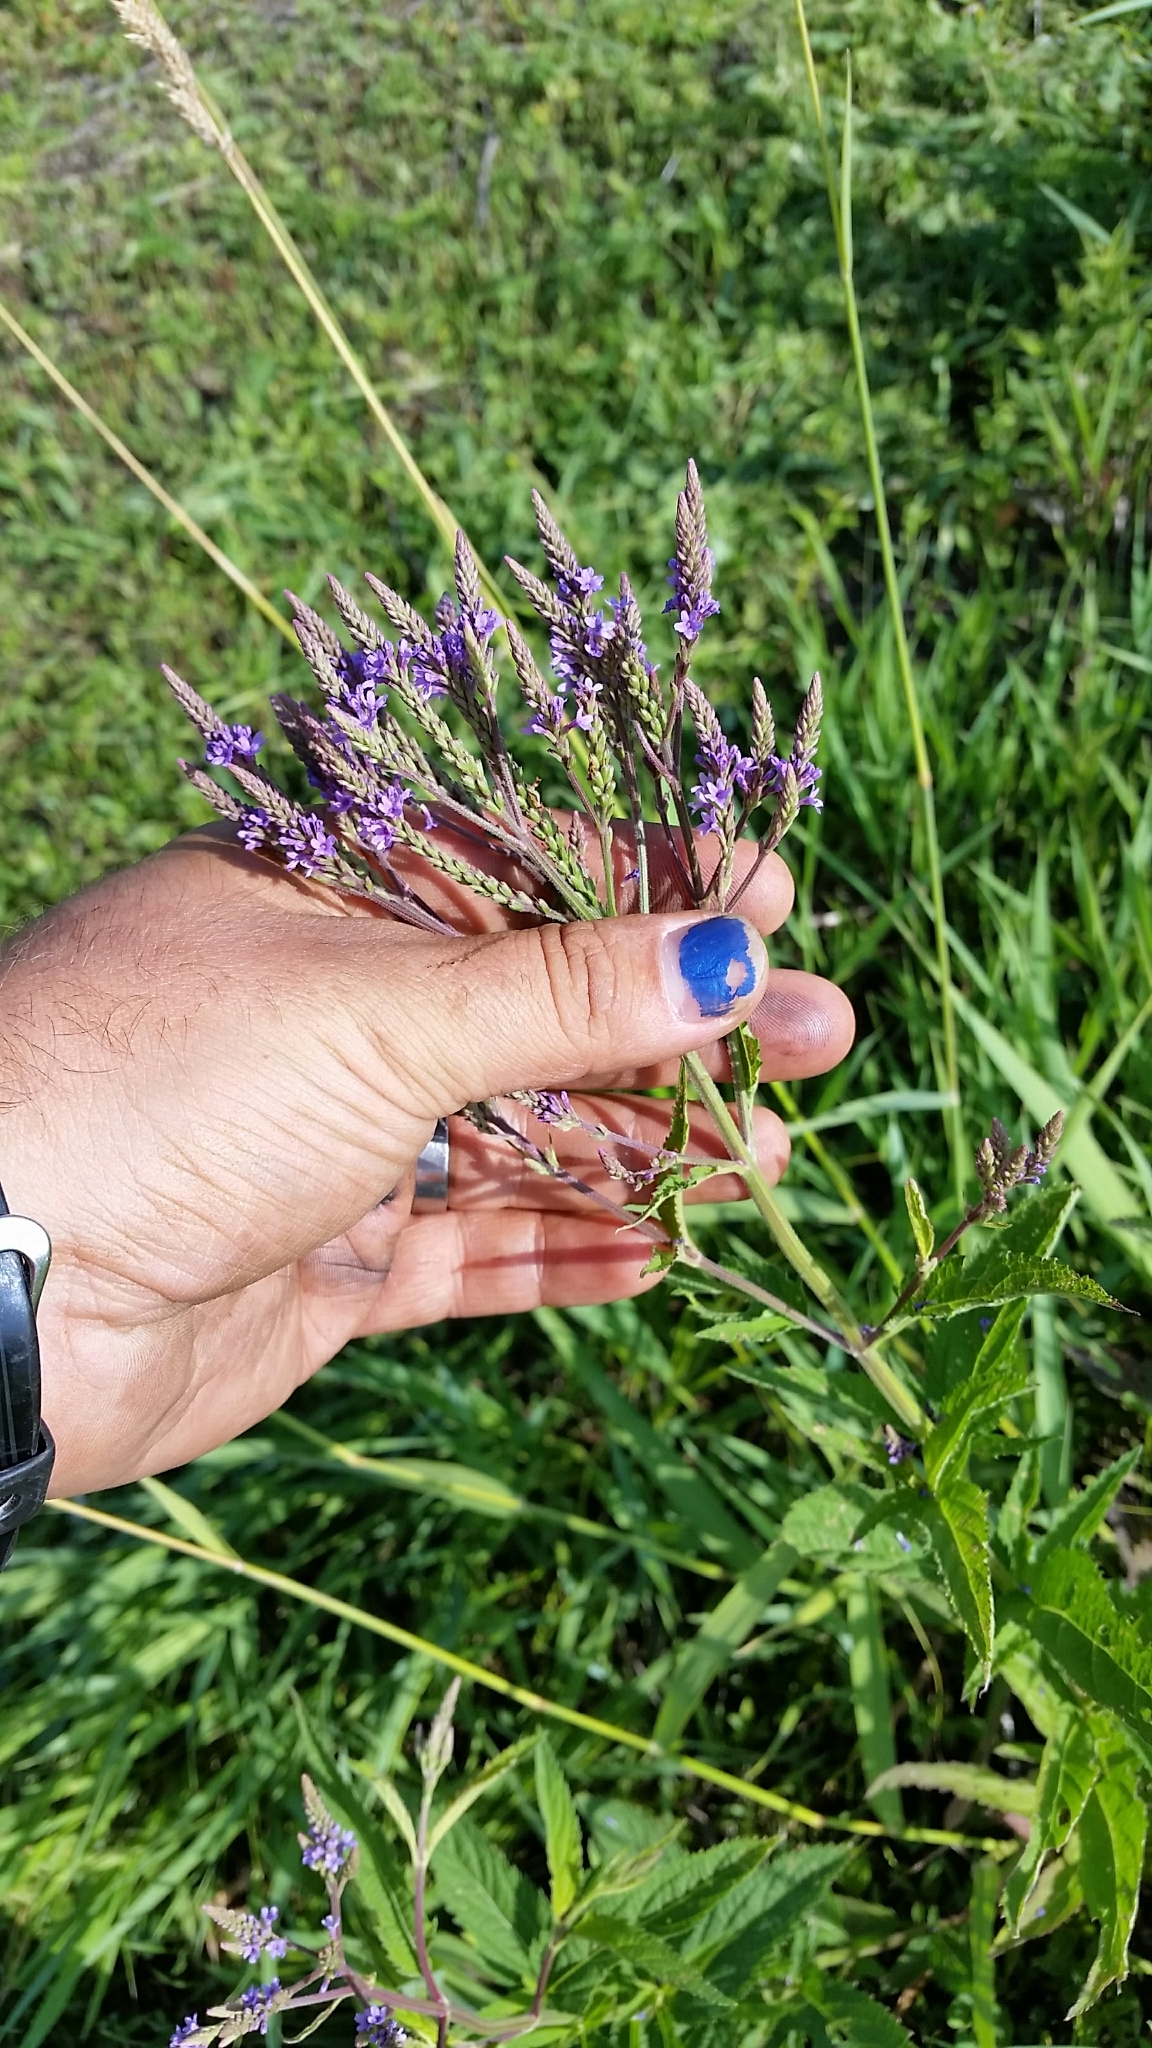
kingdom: Plantae
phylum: Tracheophyta
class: Magnoliopsida
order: Lamiales
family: Verbenaceae
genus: Verbena
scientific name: Verbena hastata
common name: American blue vervain
